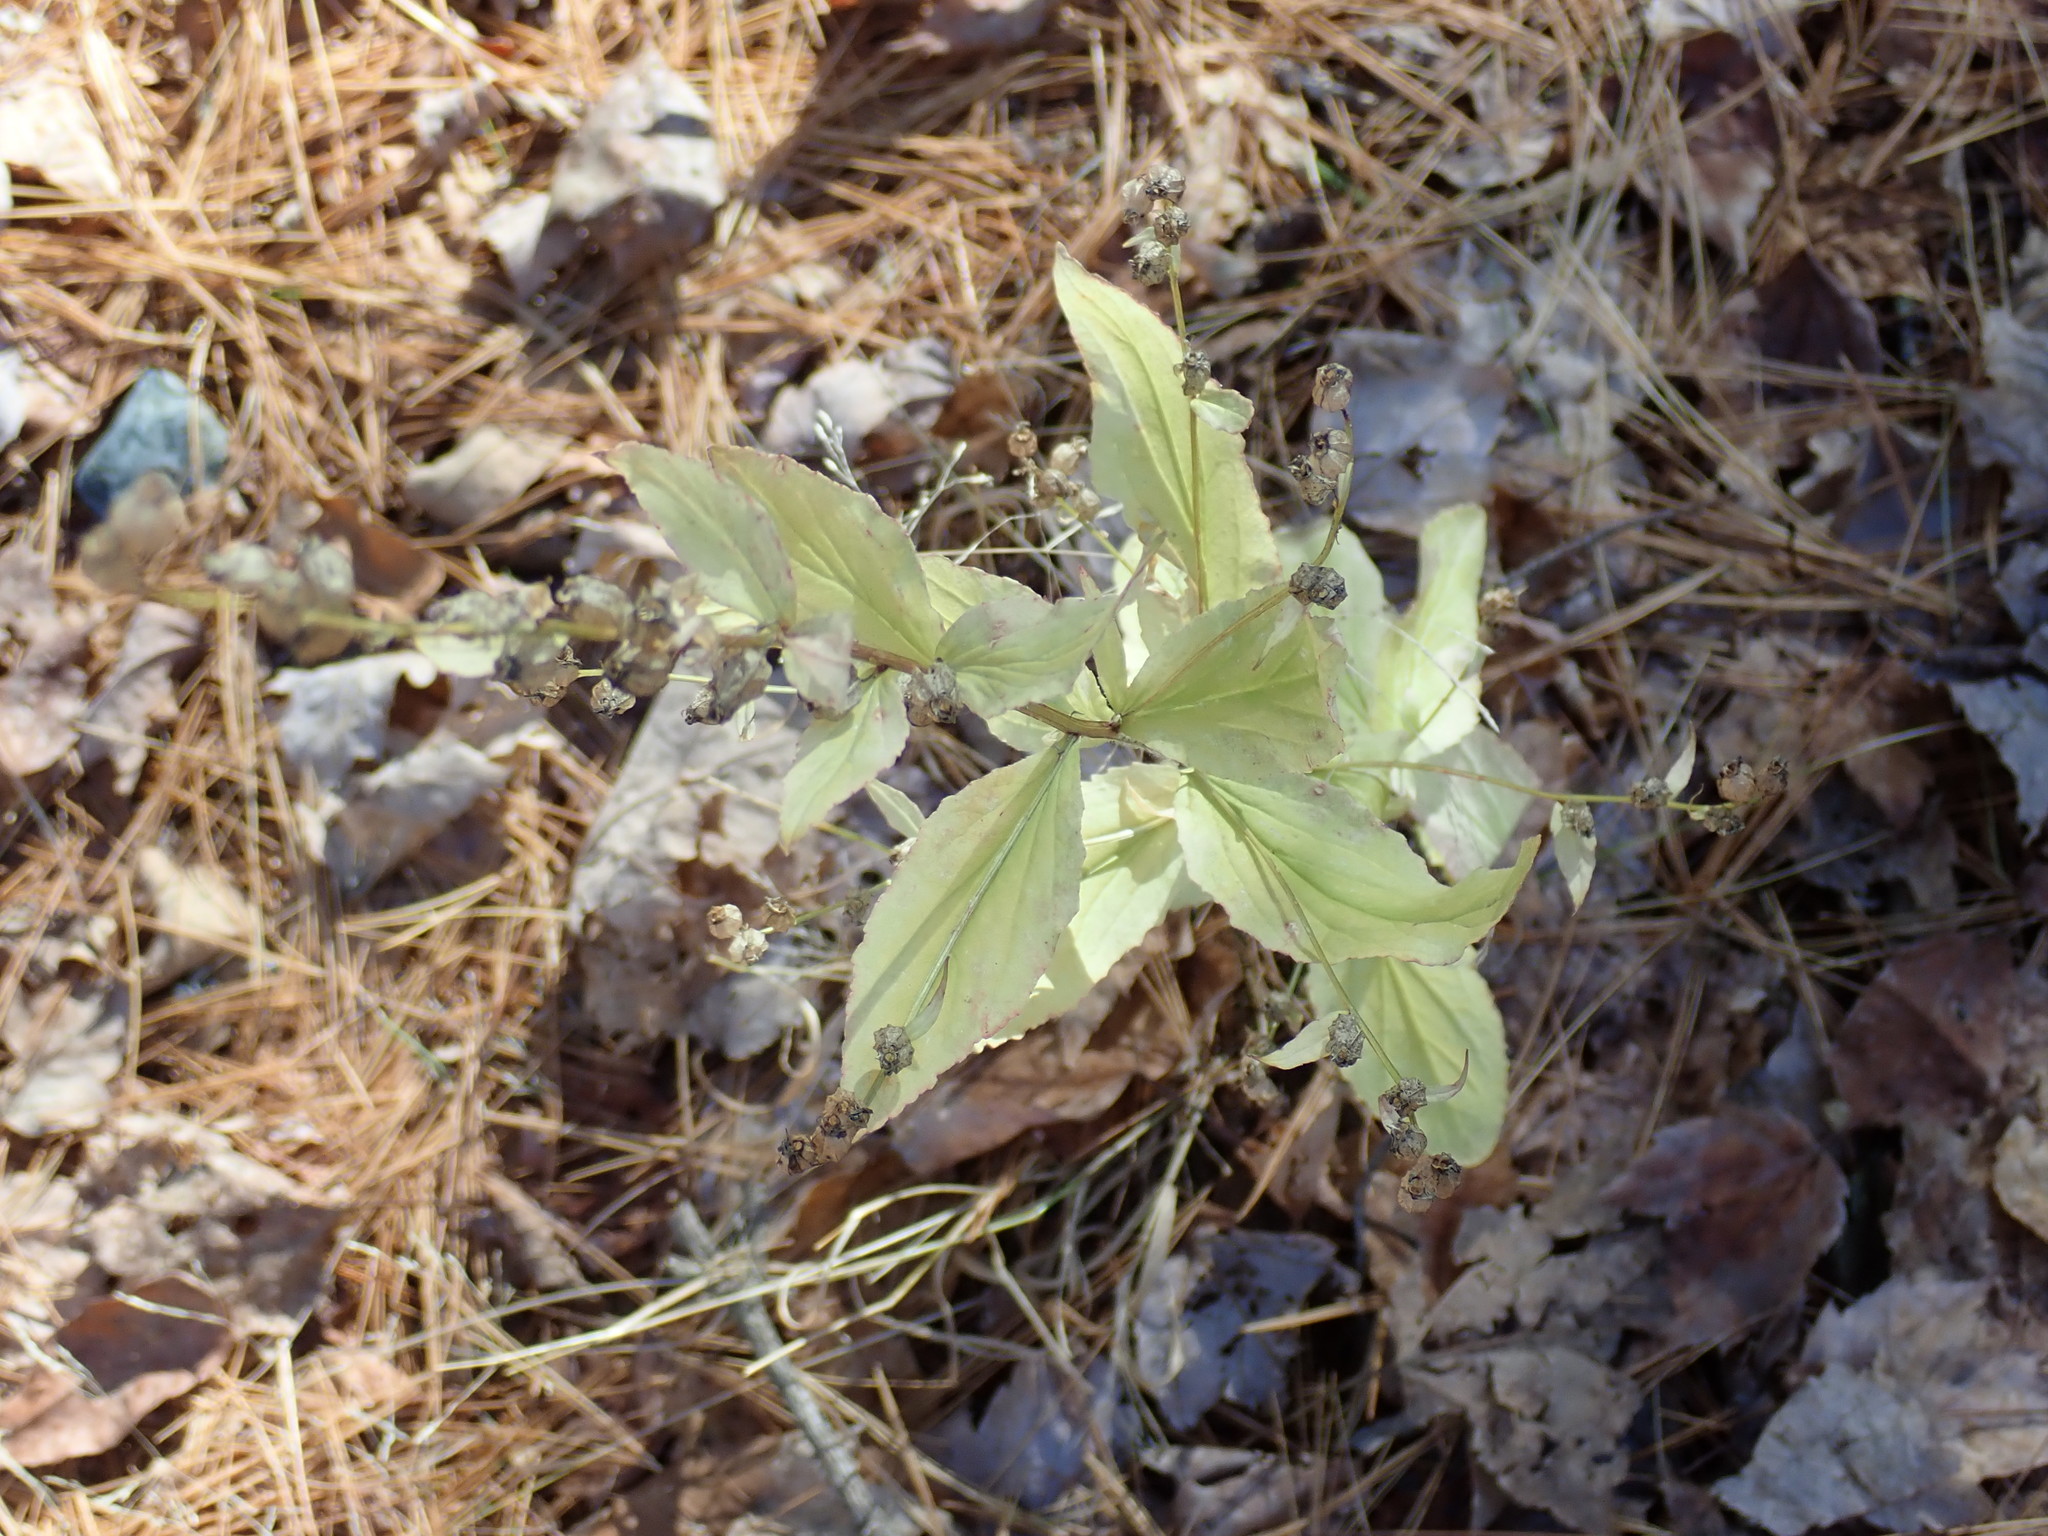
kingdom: Plantae
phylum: Tracheophyta
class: Magnoliopsida
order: Asterales
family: Campanulaceae
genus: Lobelia
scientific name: Lobelia inflata
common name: Indian tobacco
